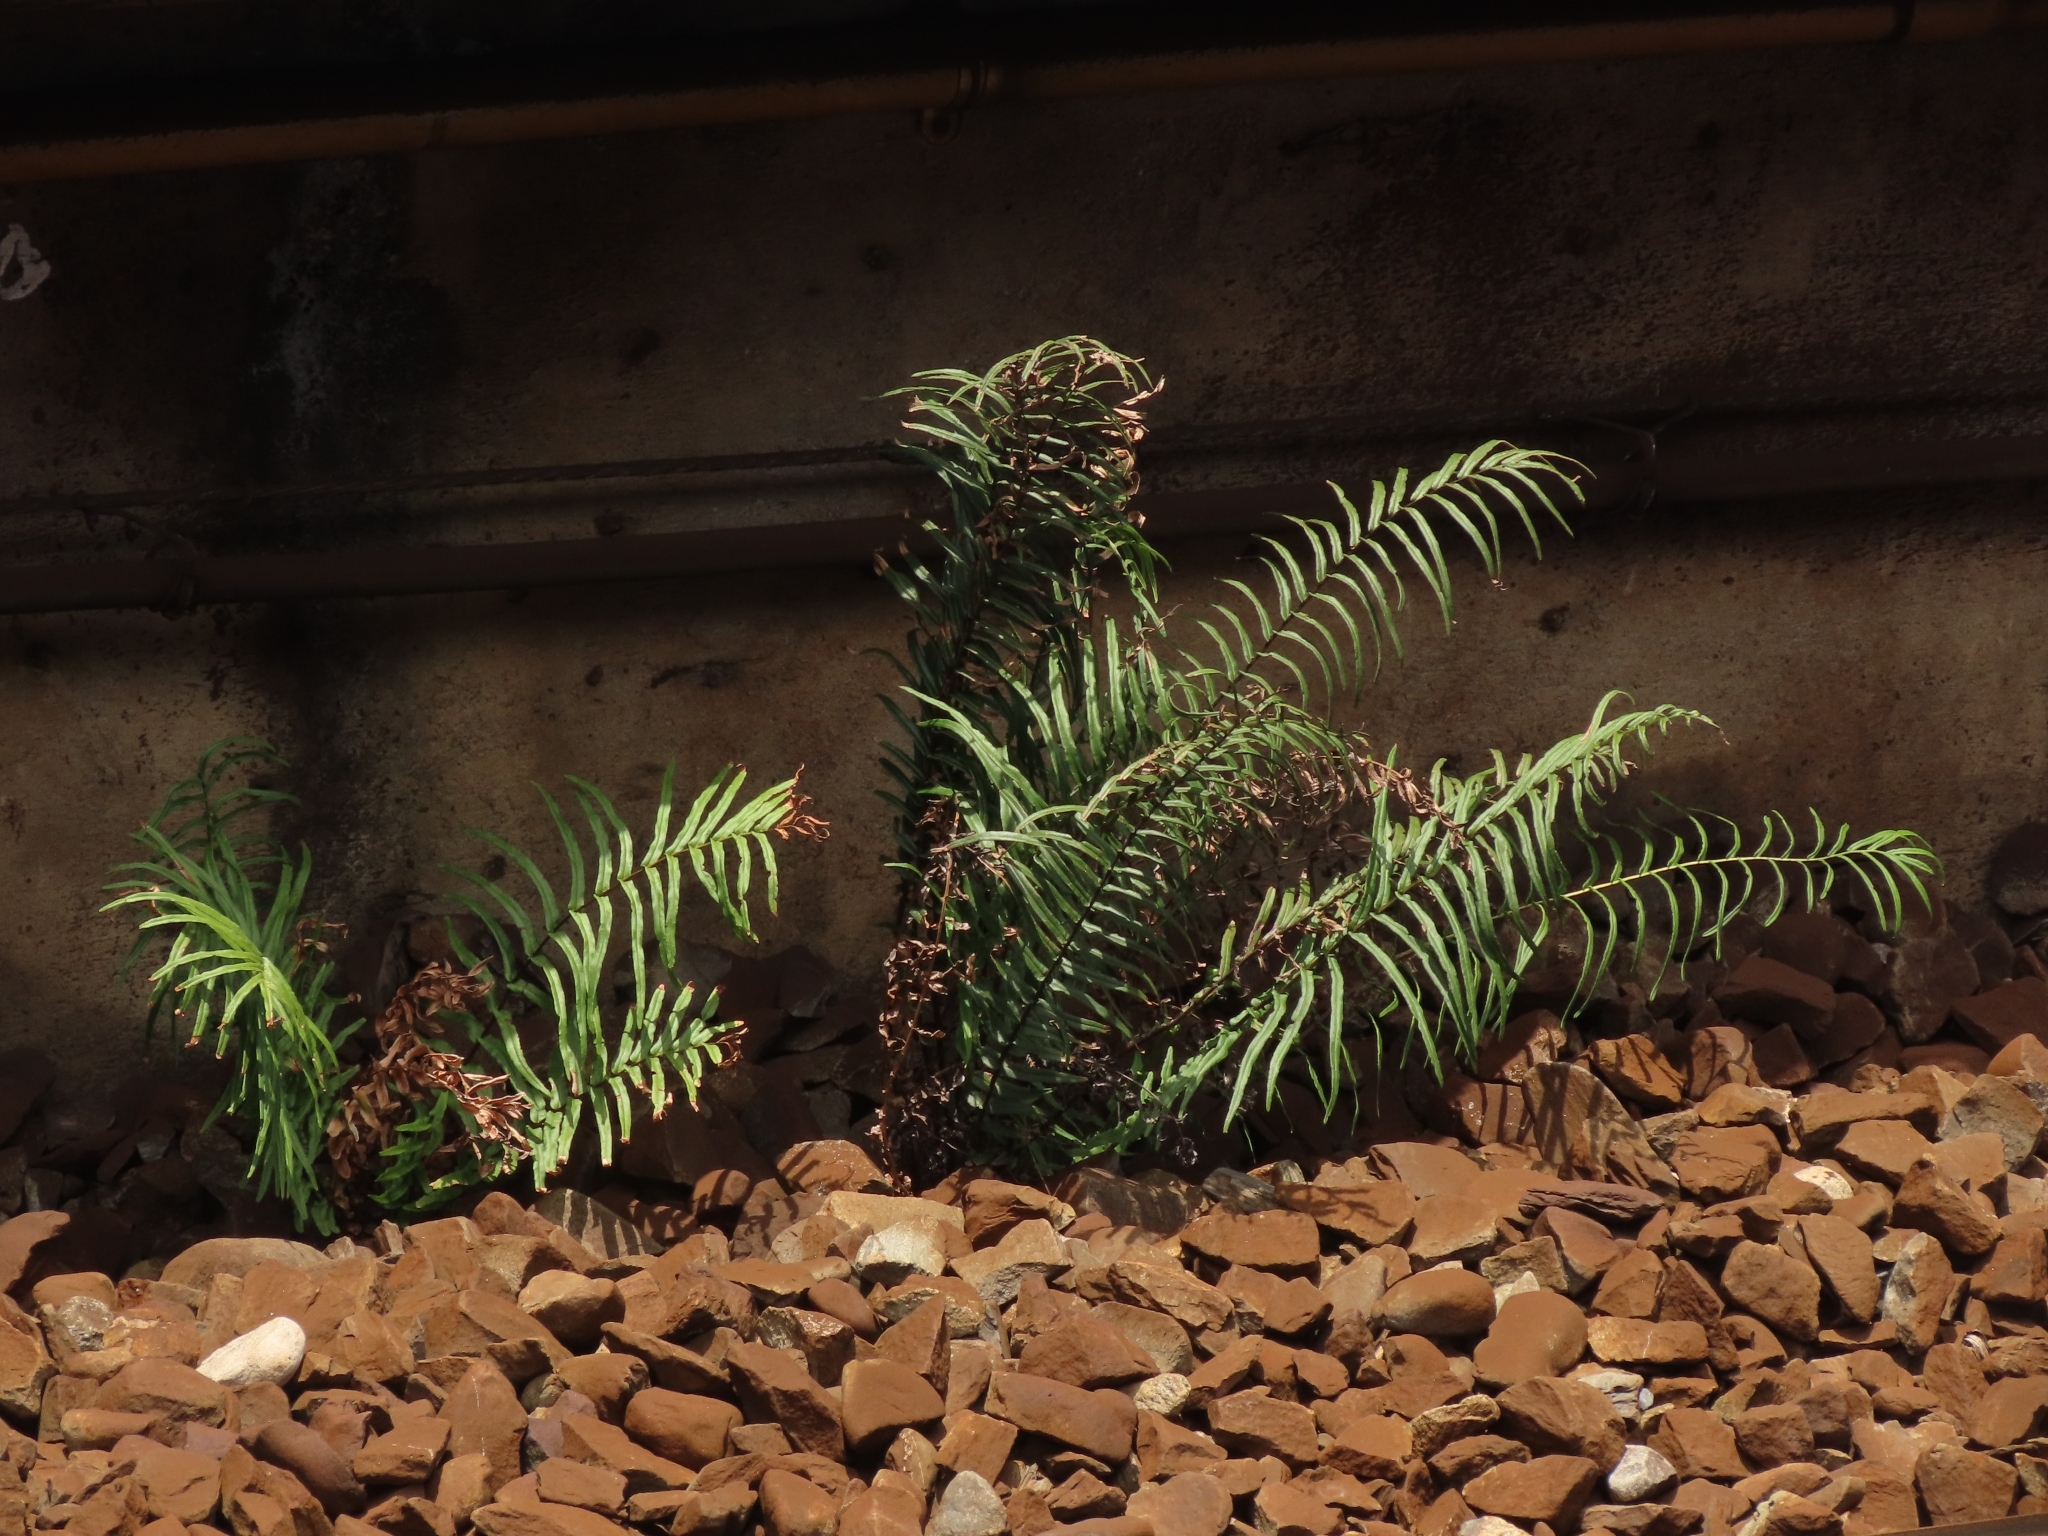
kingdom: Plantae
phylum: Tracheophyta
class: Polypodiopsida
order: Polypodiales
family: Pteridaceae
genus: Pteris
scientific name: Pteris vittata
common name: Ladder brake
